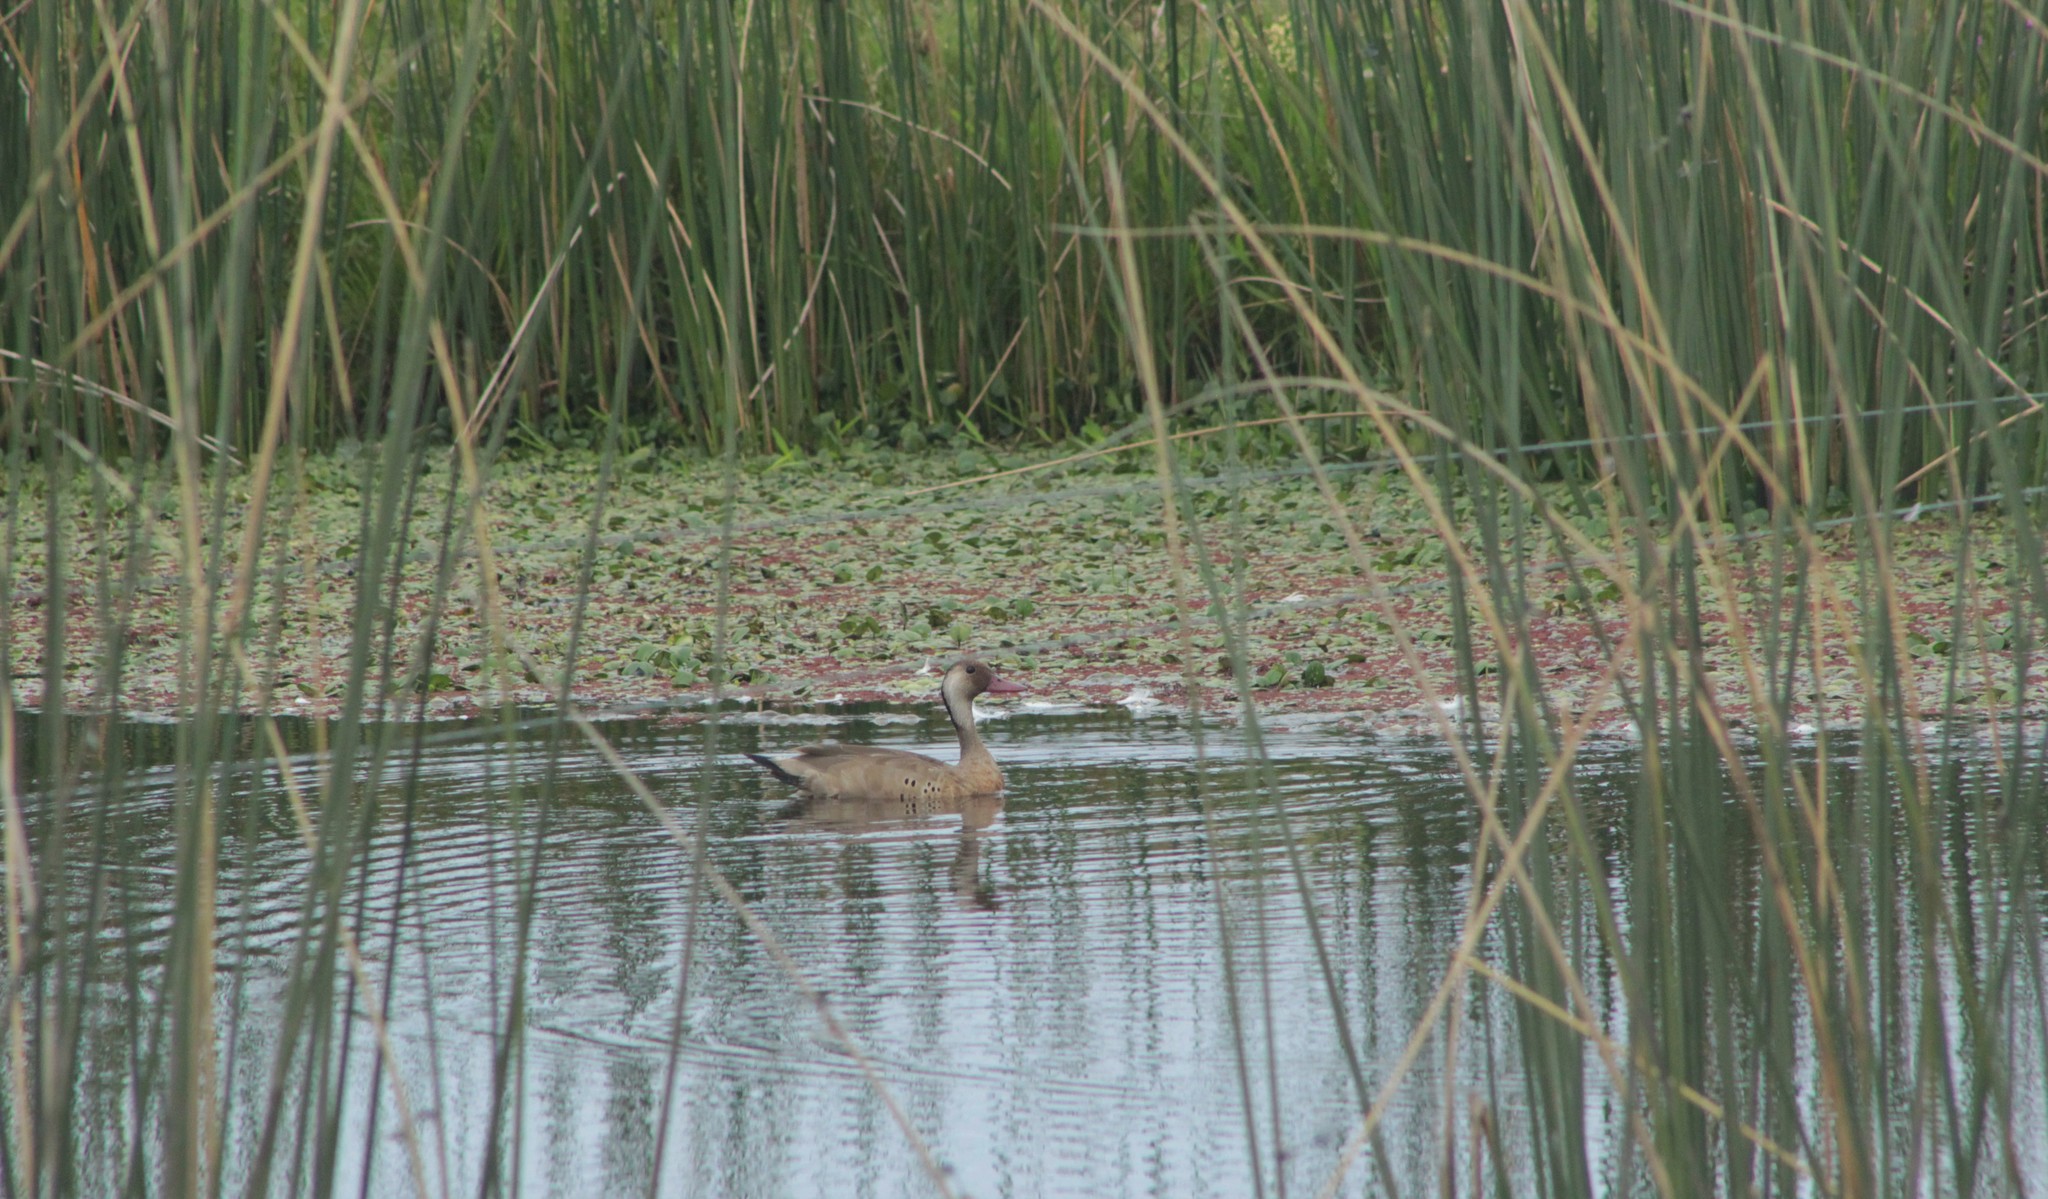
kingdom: Animalia
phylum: Chordata
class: Aves
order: Anseriformes
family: Anatidae
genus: Amazonetta
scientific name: Amazonetta brasiliensis
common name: Brazilian teal
